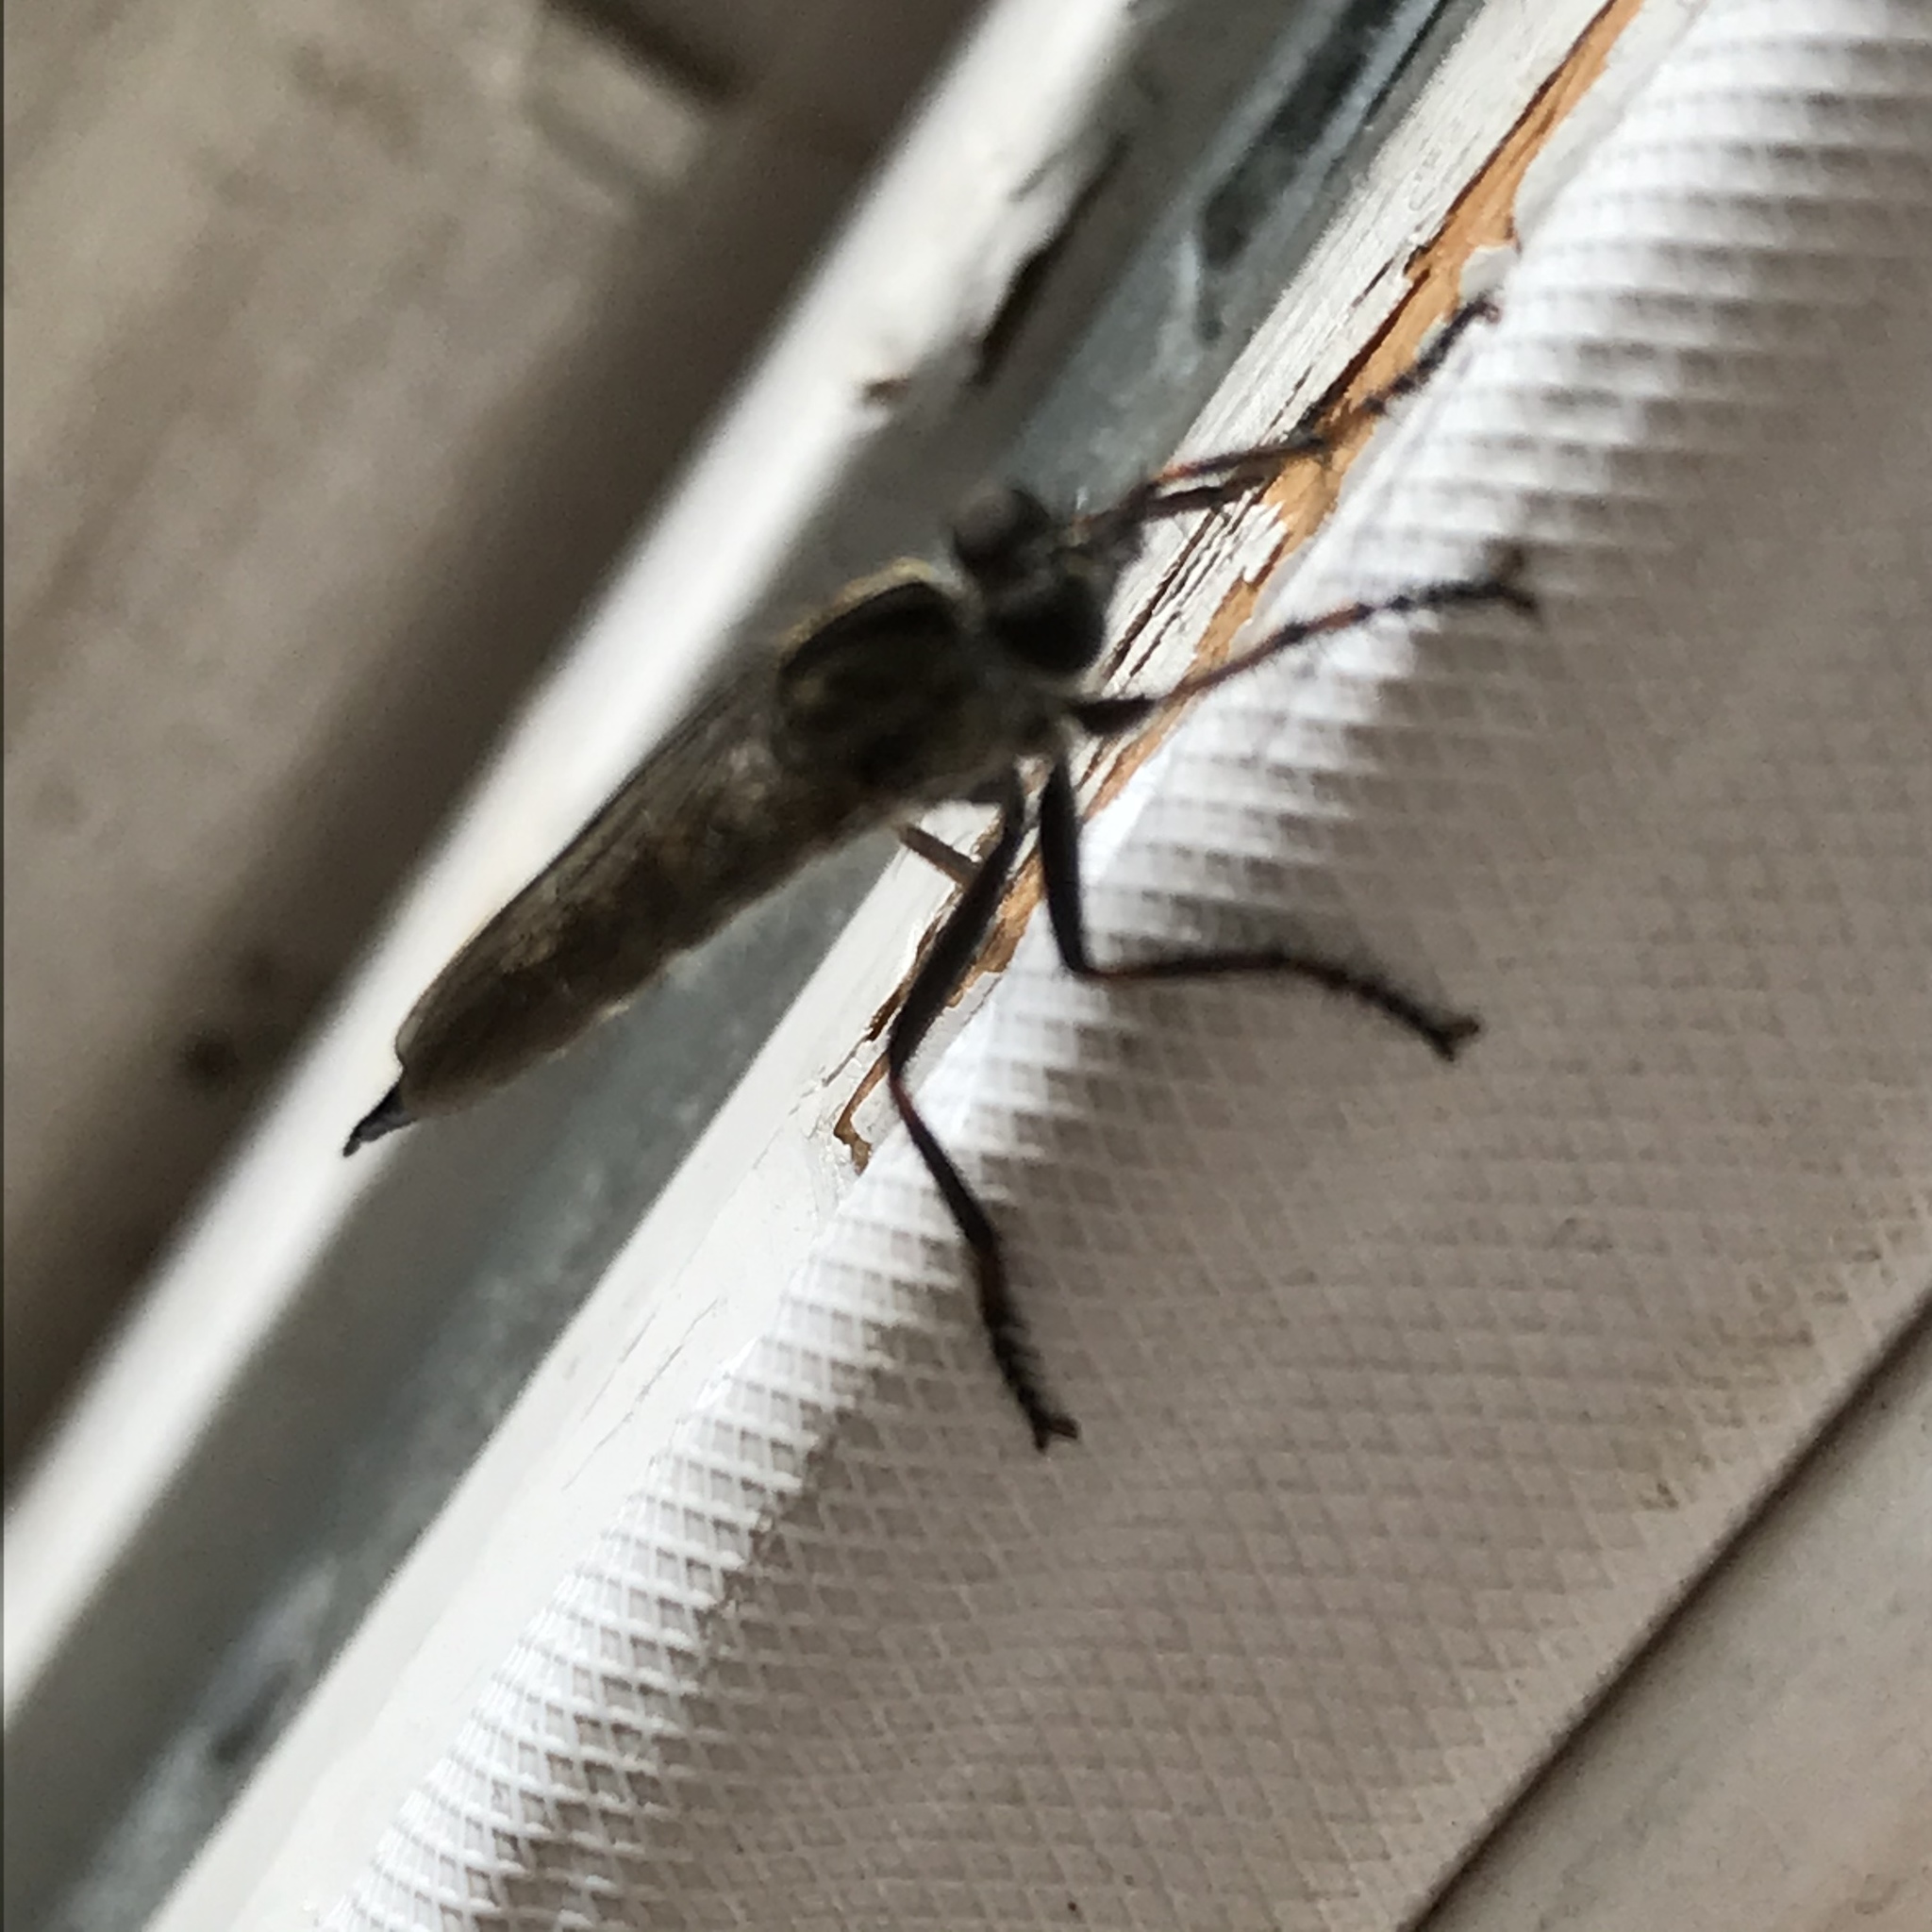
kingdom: Animalia
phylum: Arthropoda
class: Insecta
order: Diptera
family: Asilidae
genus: Machimus
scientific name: Machimus atricapillus
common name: Kite-tailed robberfly
